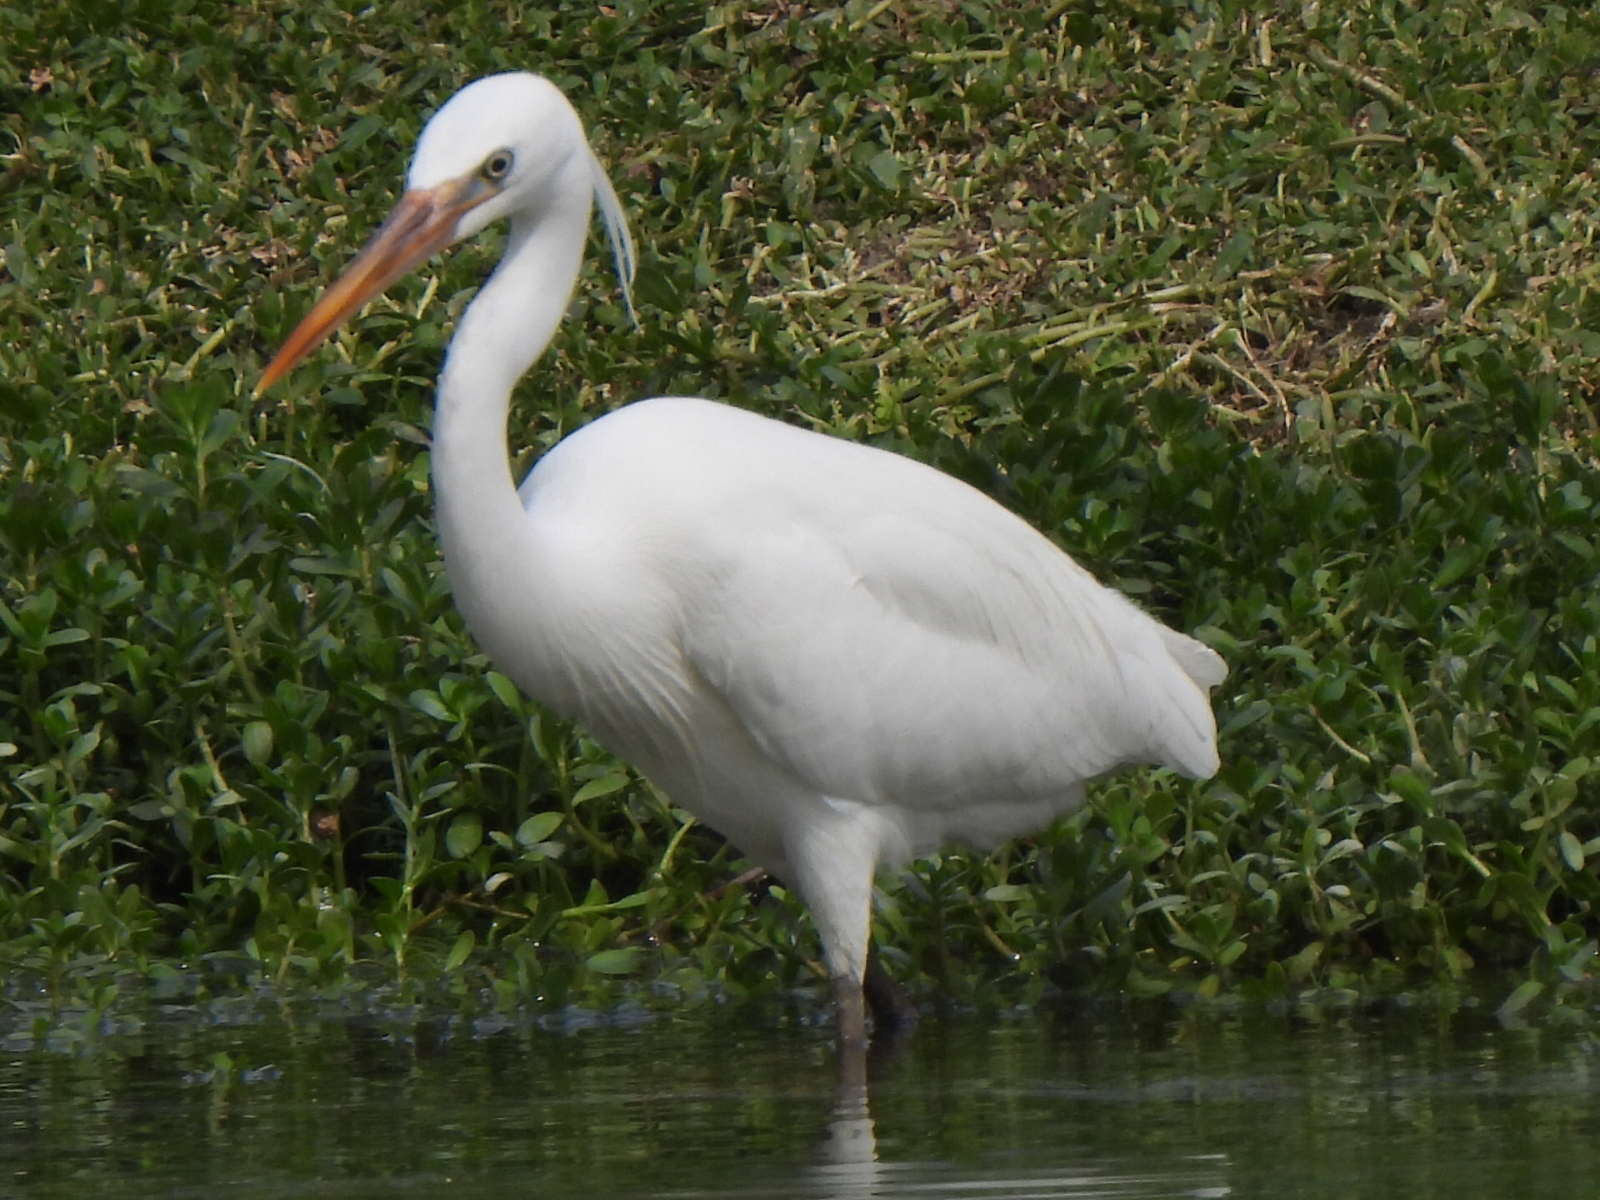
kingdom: Animalia
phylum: Chordata
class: Aves
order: Pelecaniformes
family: Ardeidae
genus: Egretta
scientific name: Egretta gularis
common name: Western reef-heron
